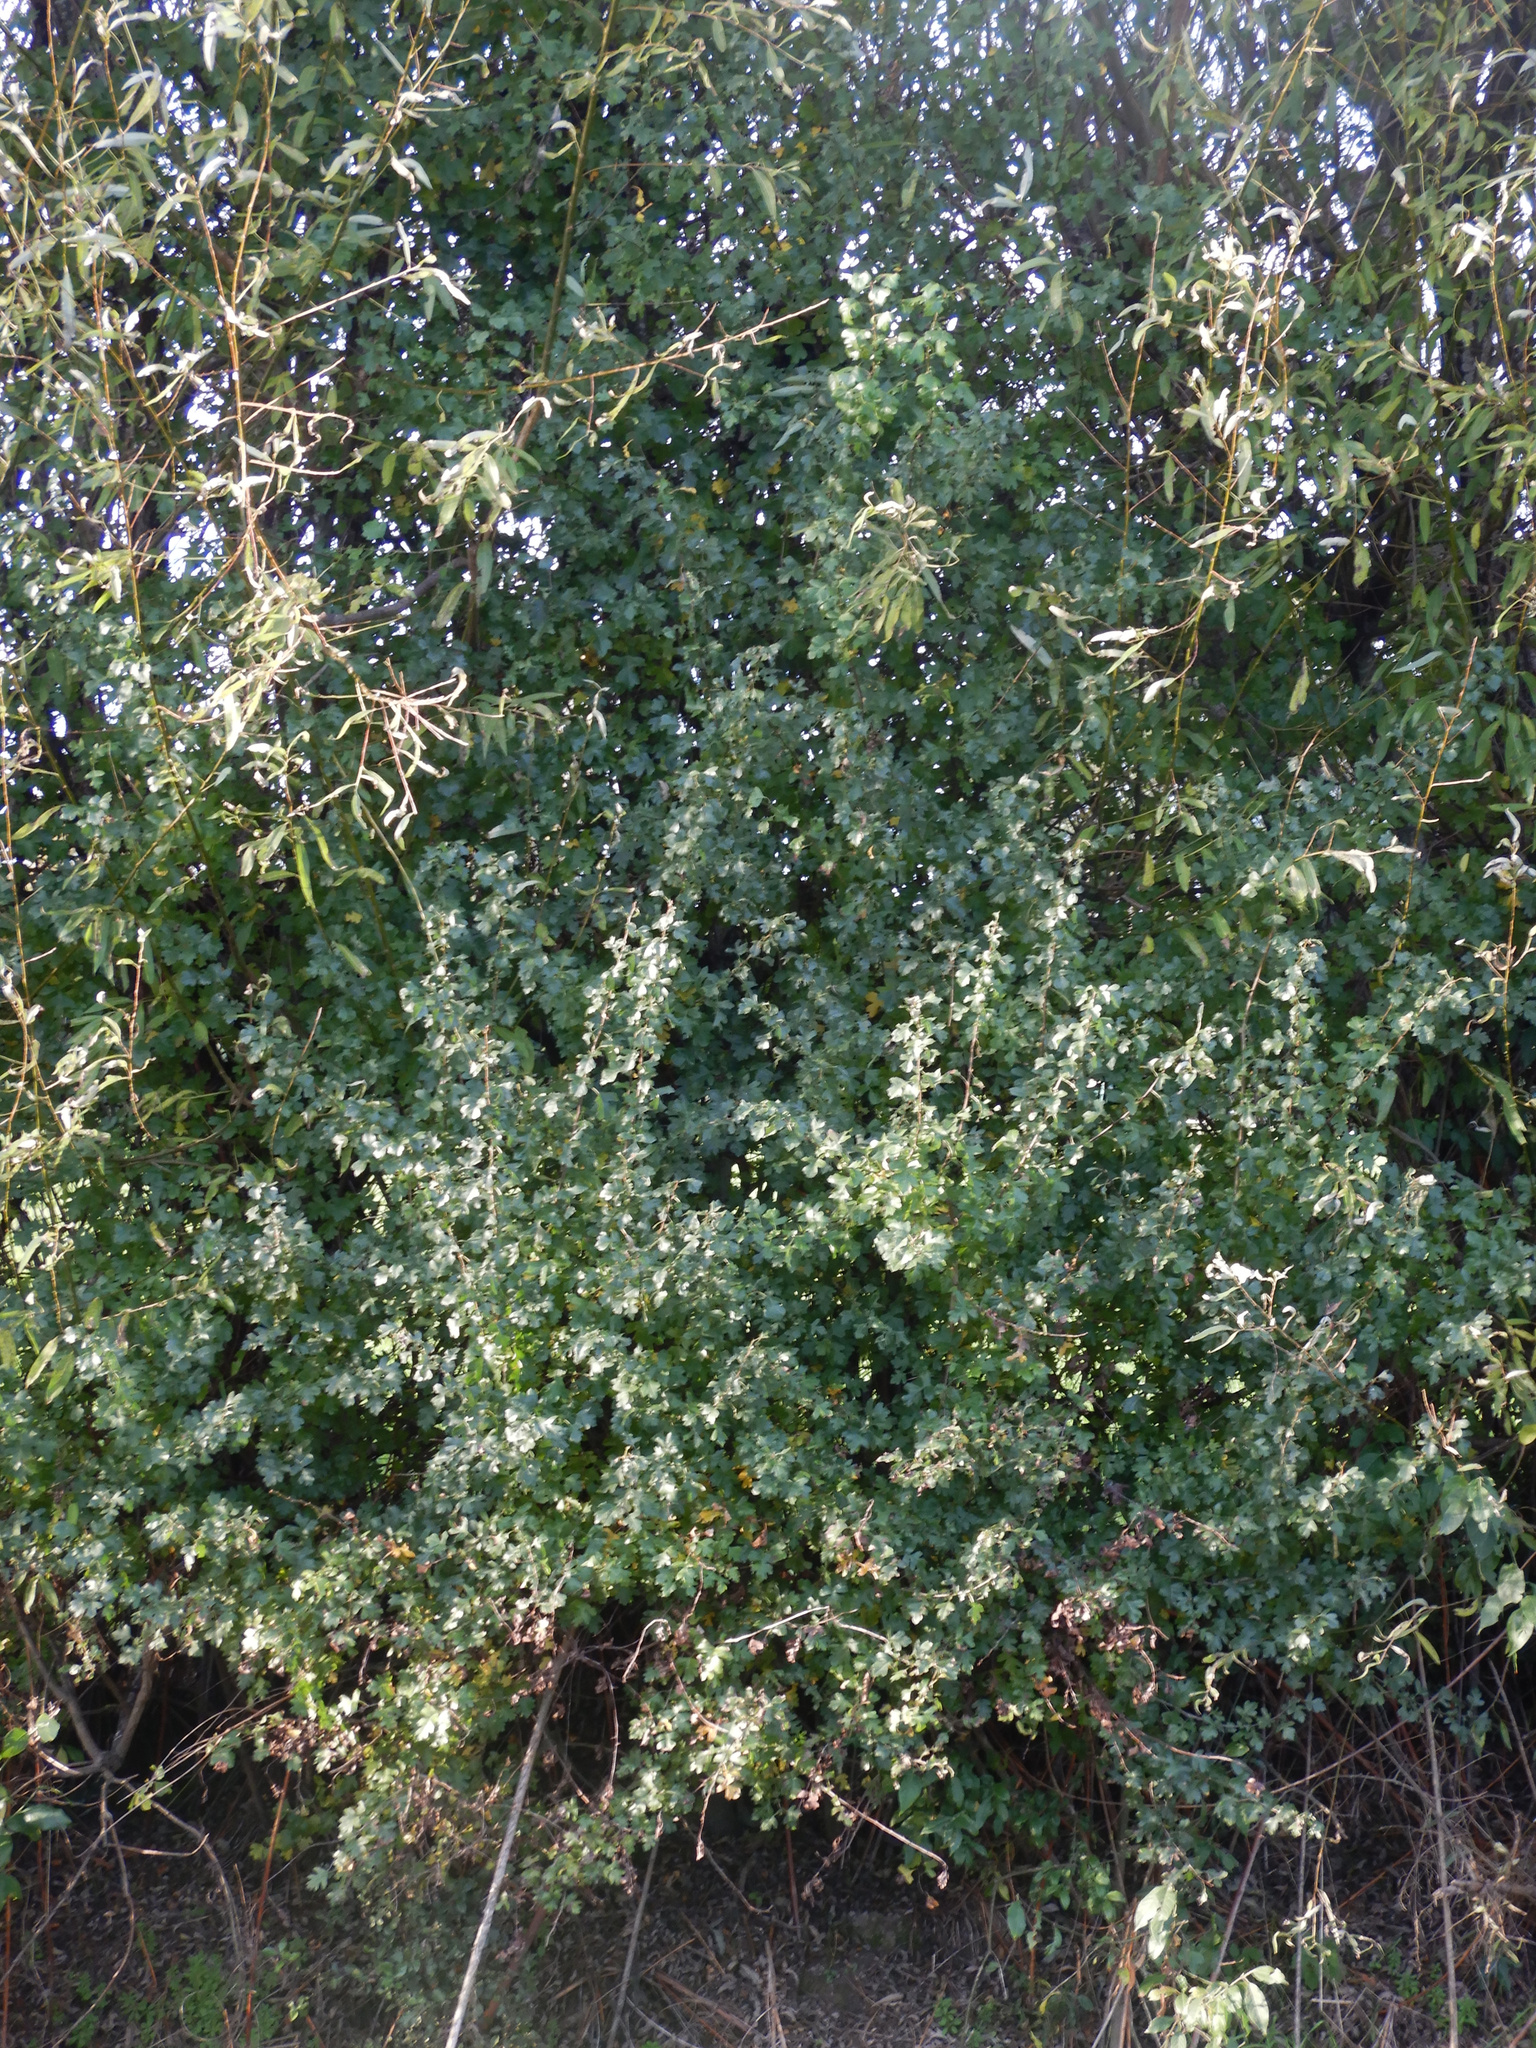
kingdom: Plantae
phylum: Tracheophyta
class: Magnoliopsida
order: Rosales
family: Rosaceae
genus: Crataegus
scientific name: Crataegus monogyna
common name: Hawthorn
